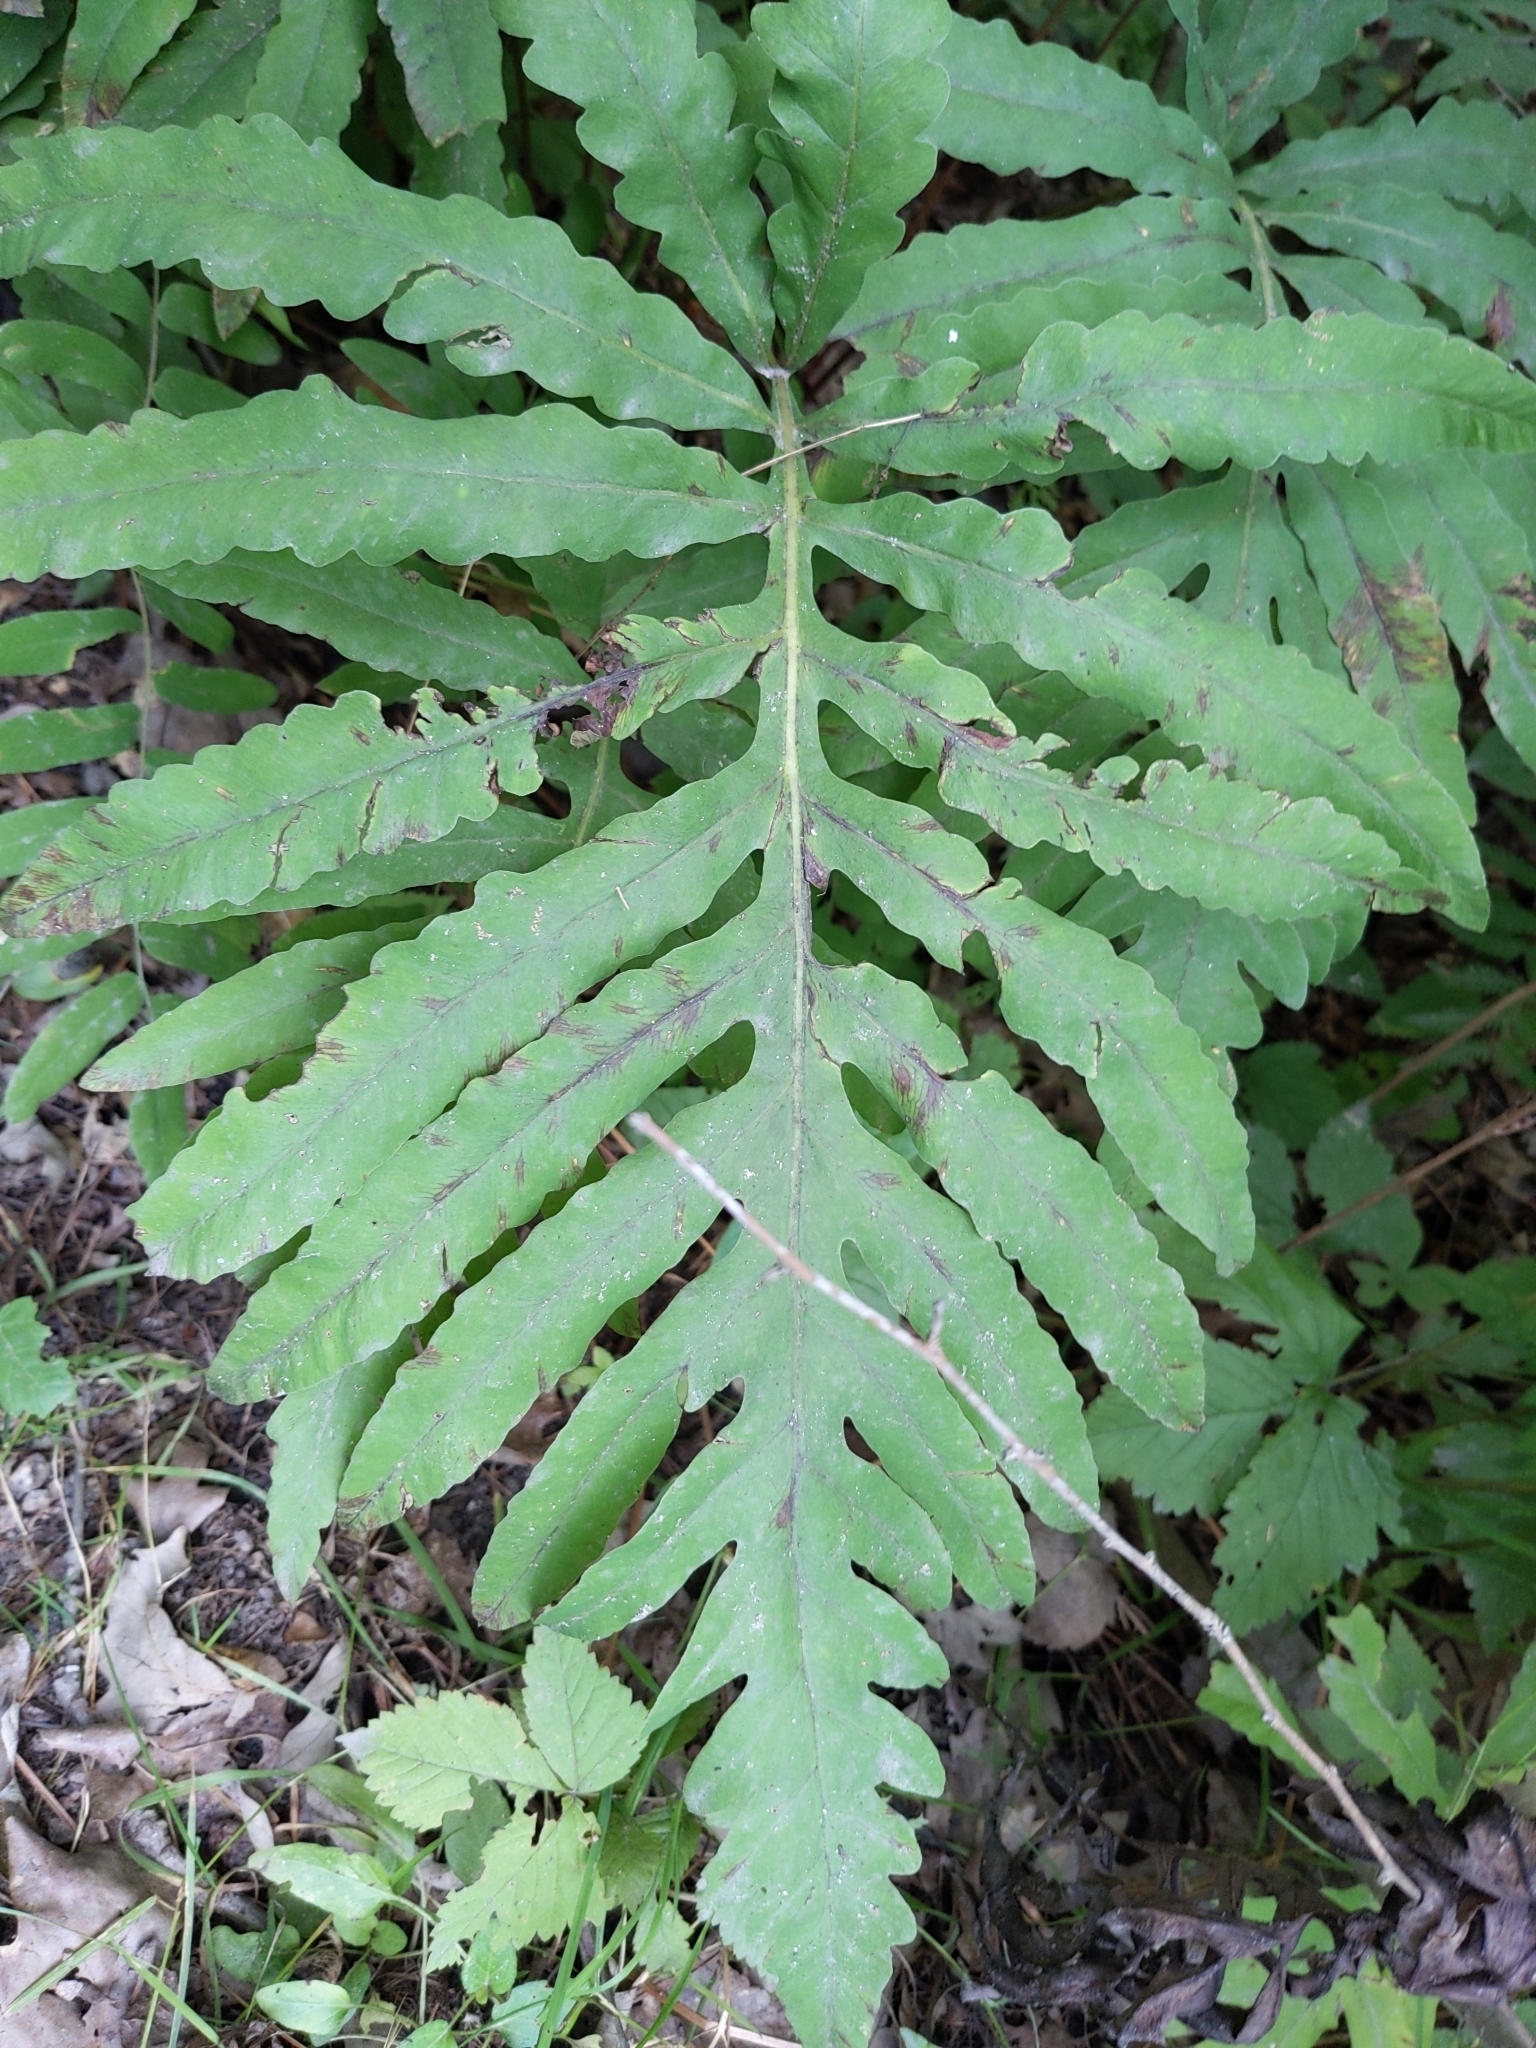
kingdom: Plantae
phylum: Tracheophyta
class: Polypodiopsida
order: Polypodiales
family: Onocleaceae
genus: Onoclea
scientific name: Onoclea sensibilis
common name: Sensitive fern
